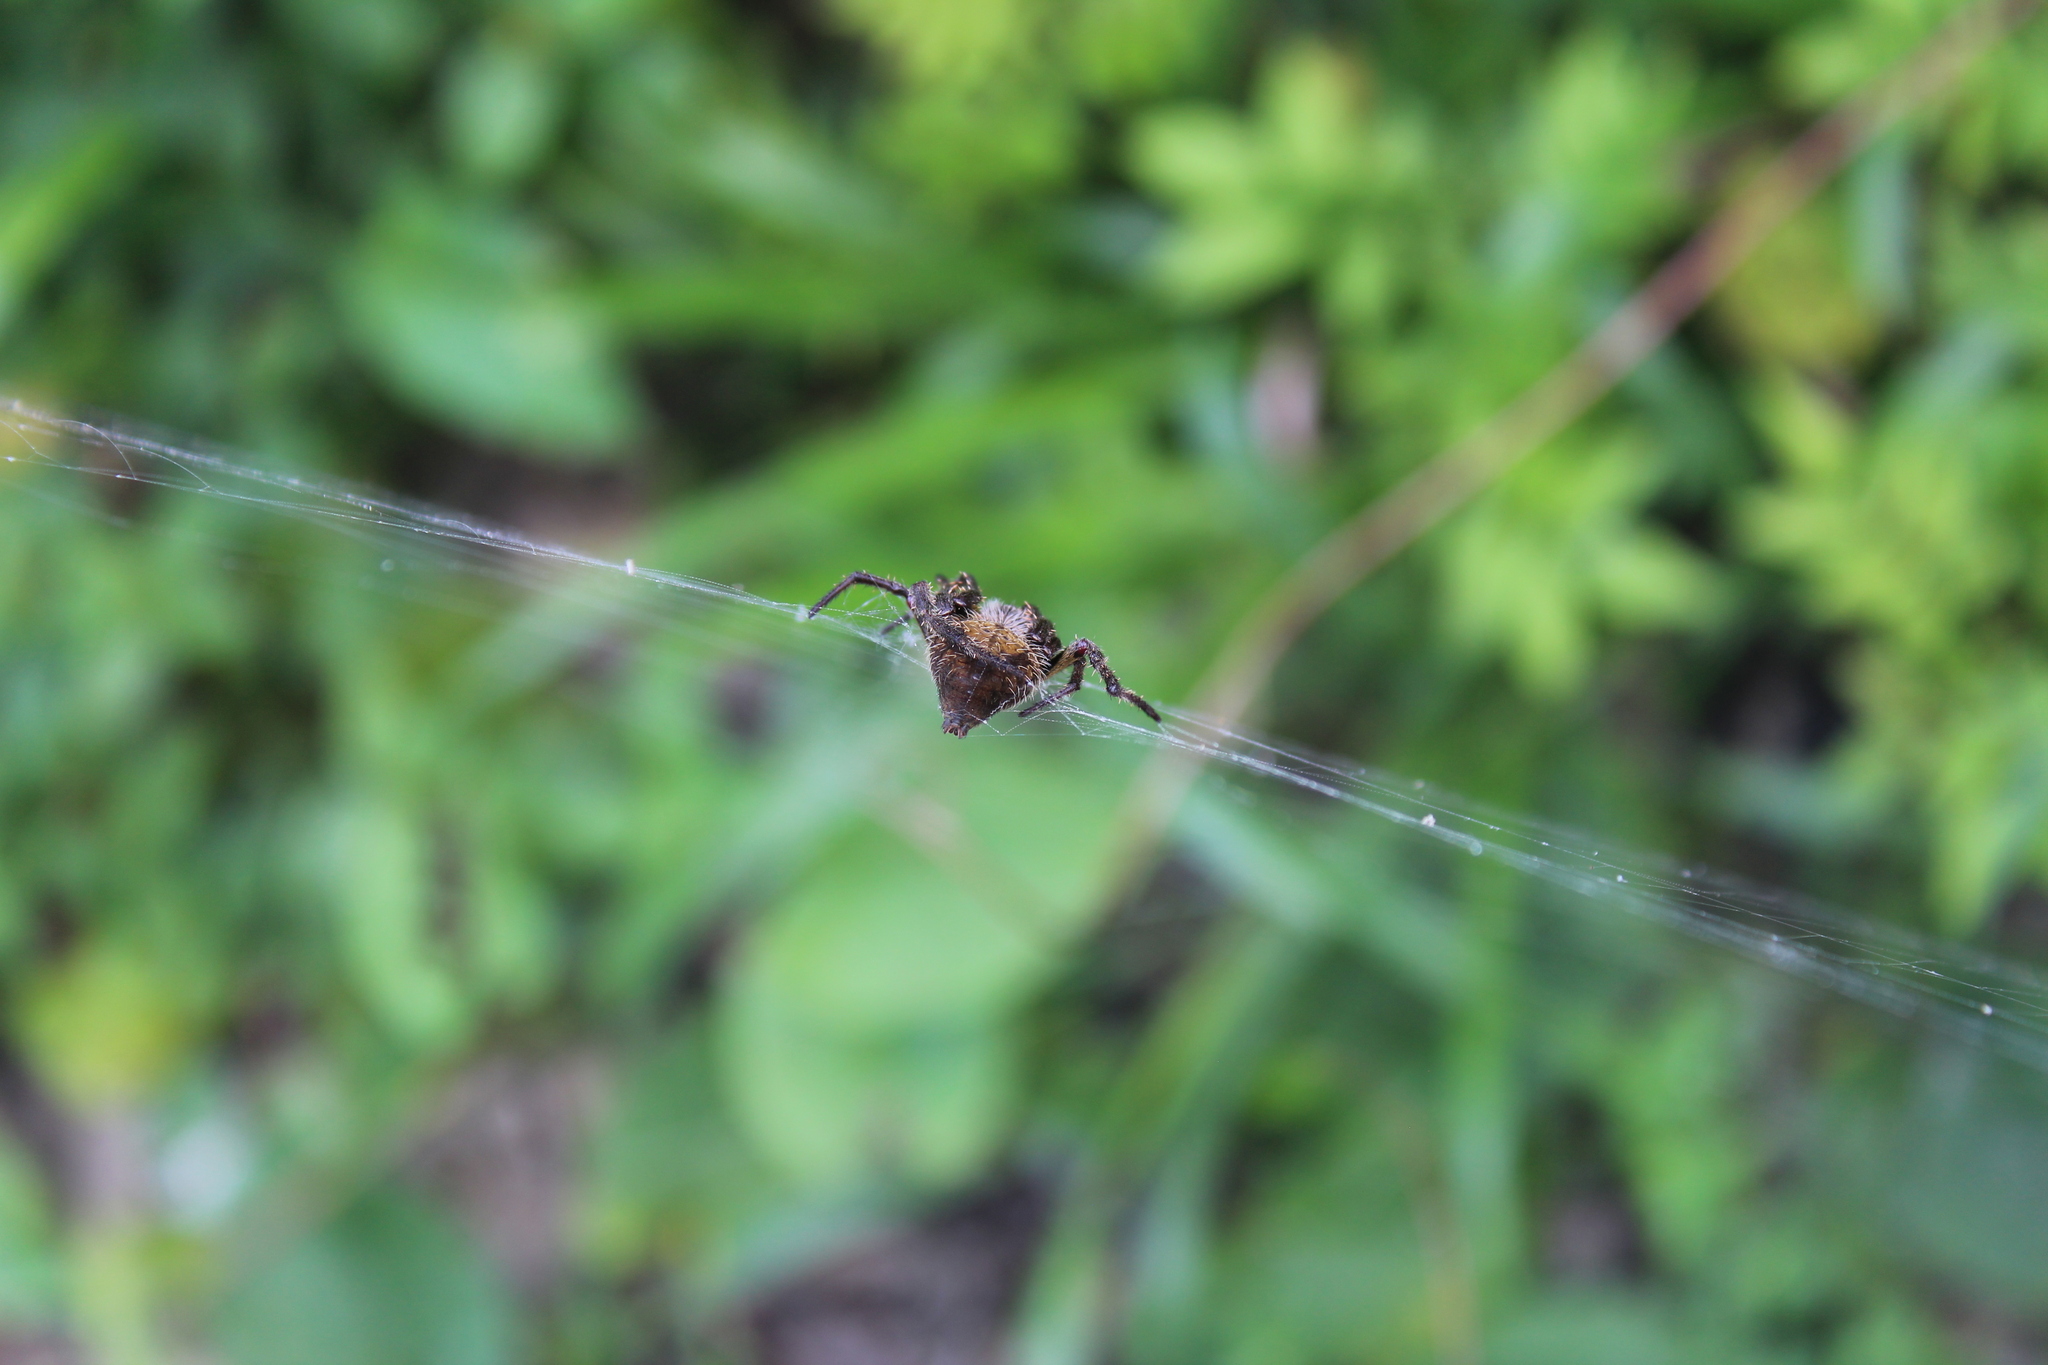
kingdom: Animalia
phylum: Arthropoda
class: Arachnida
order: Araneae
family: Araneidae
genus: Eriophora
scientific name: Eriophora ravilla
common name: Orb weavers
